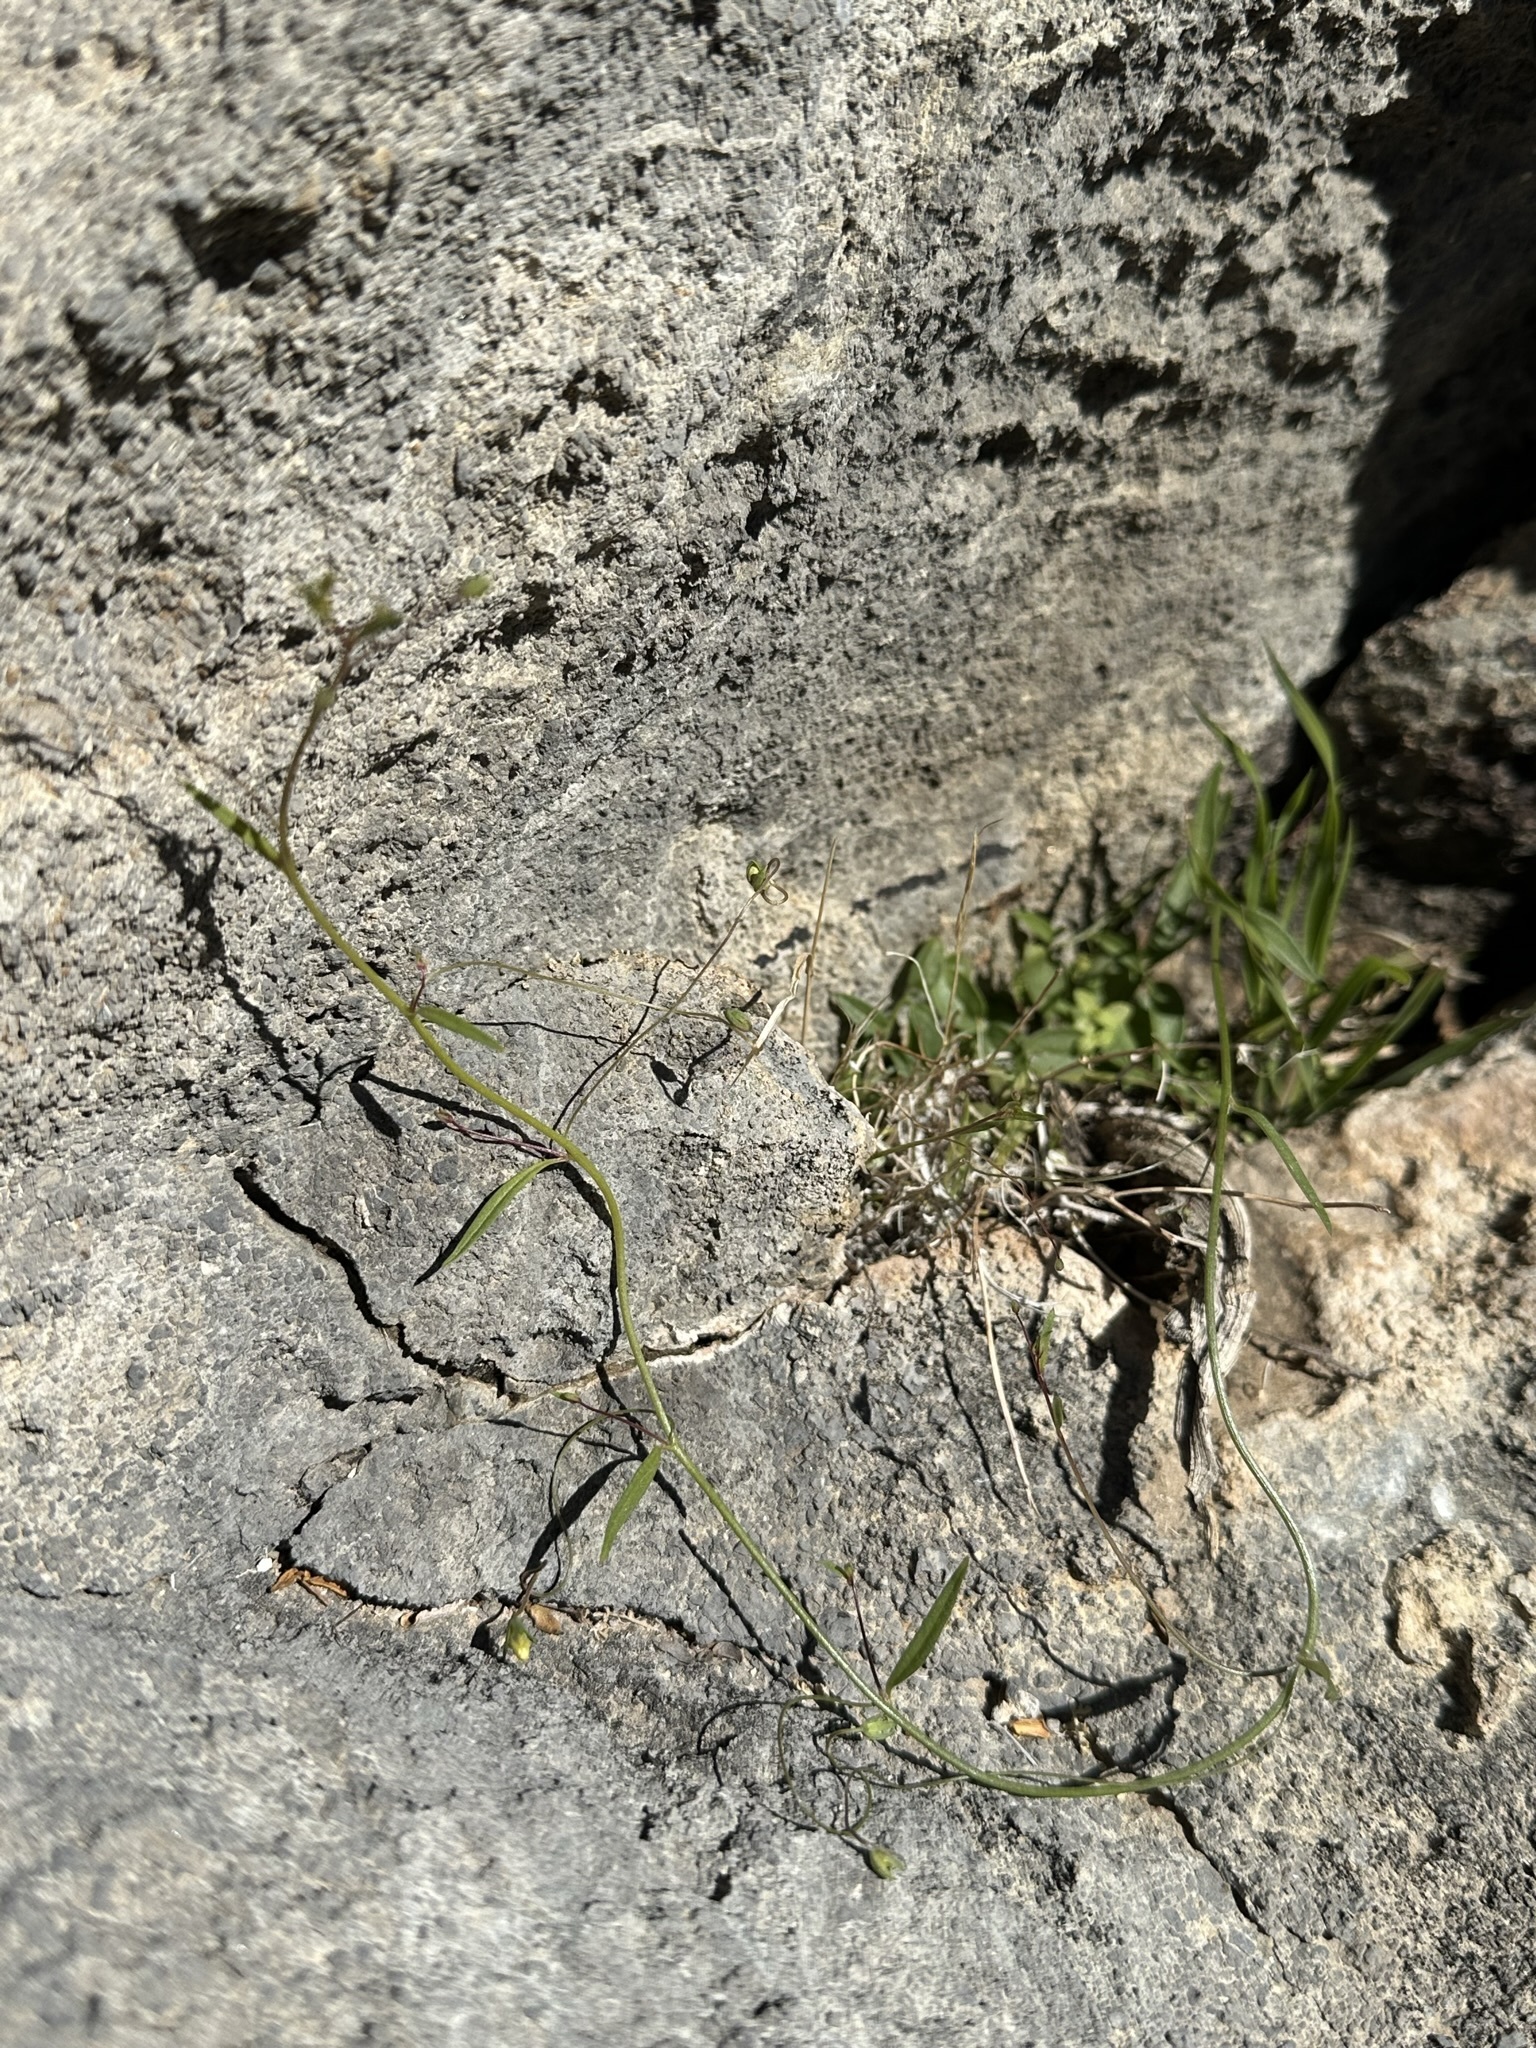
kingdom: Plantae
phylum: Tracheophyta
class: Magnoliopsida
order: Lamiales
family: Plantaginaceae
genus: Neogaerrhinum
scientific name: Neogaerrhinum filipes
